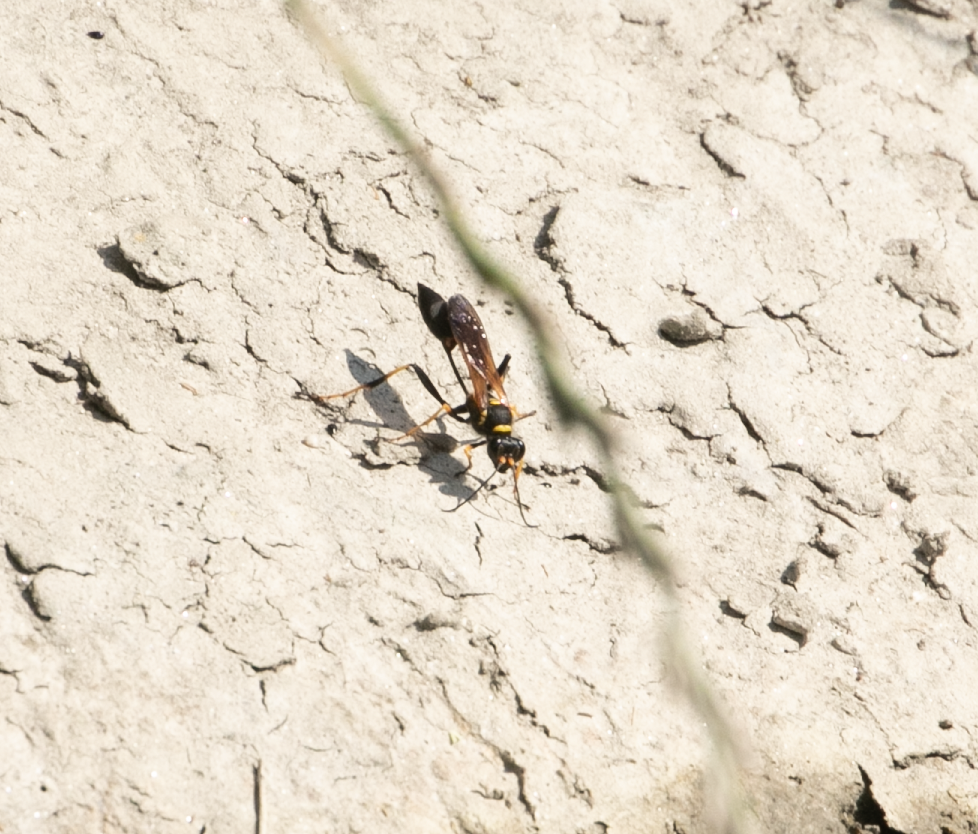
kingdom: Animalia
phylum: Arthropoda
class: Insecta
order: Hymenoptera
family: Sphecidae
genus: Sceliphron
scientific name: Sceliphron caementarium
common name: Mud dauber
